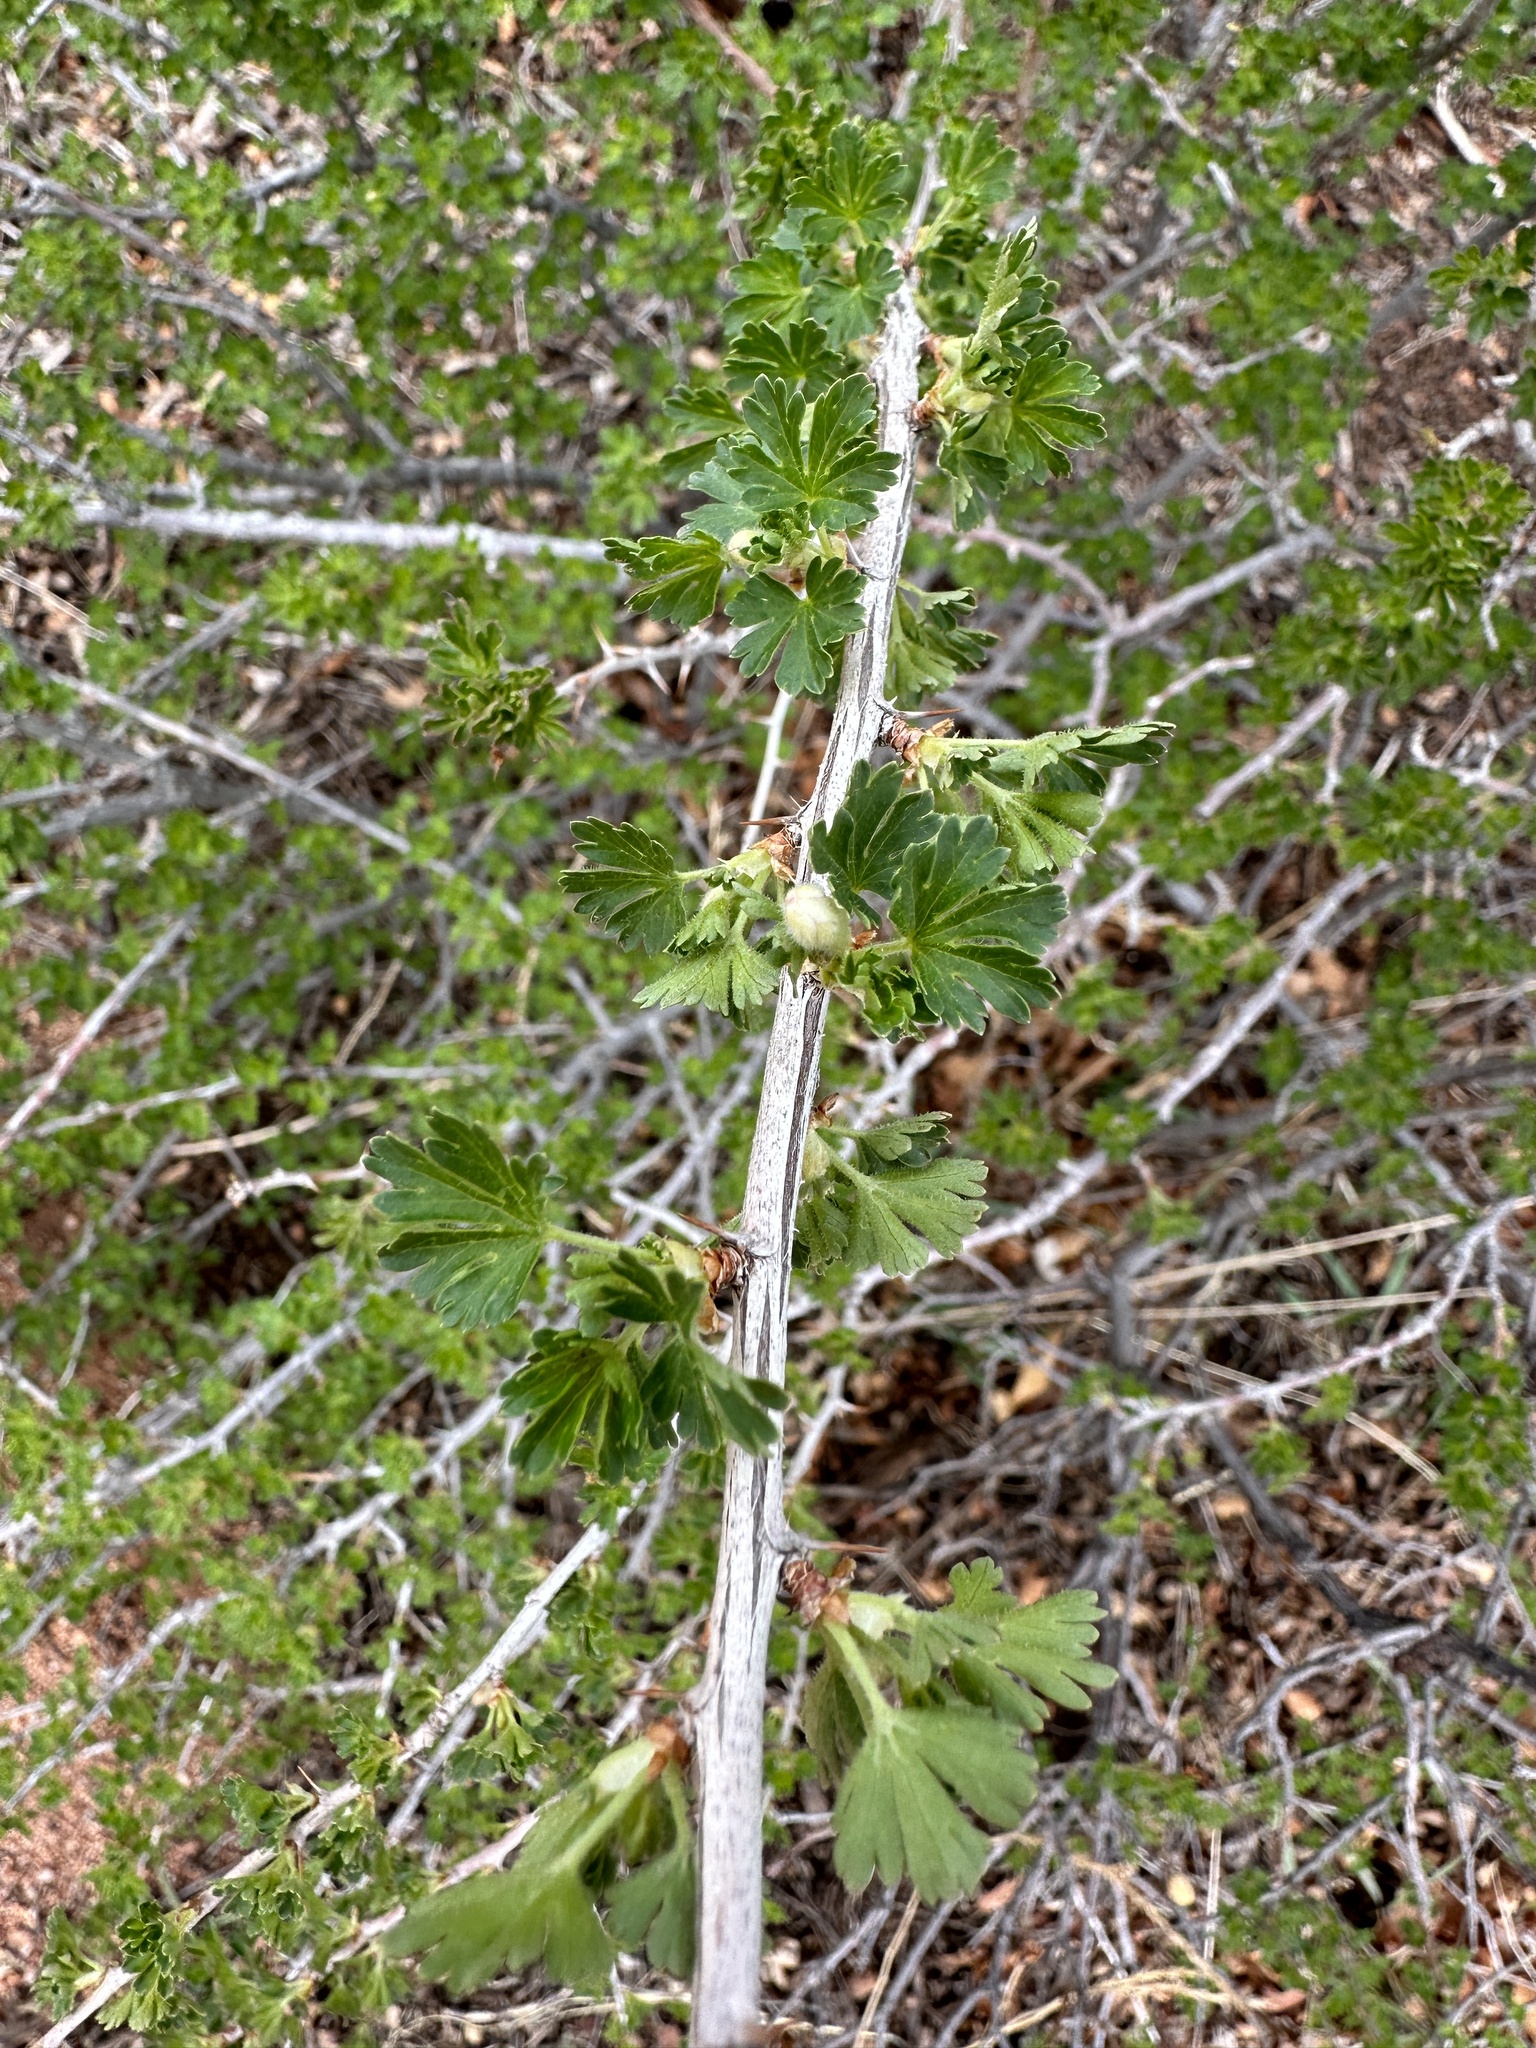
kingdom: Plantae
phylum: Tracheophyta
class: Magnoliopsida
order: Saxifragales
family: Grossulariaceae
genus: Ribes
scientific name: Ribes leptanthum
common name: Trumpet gooseberry
